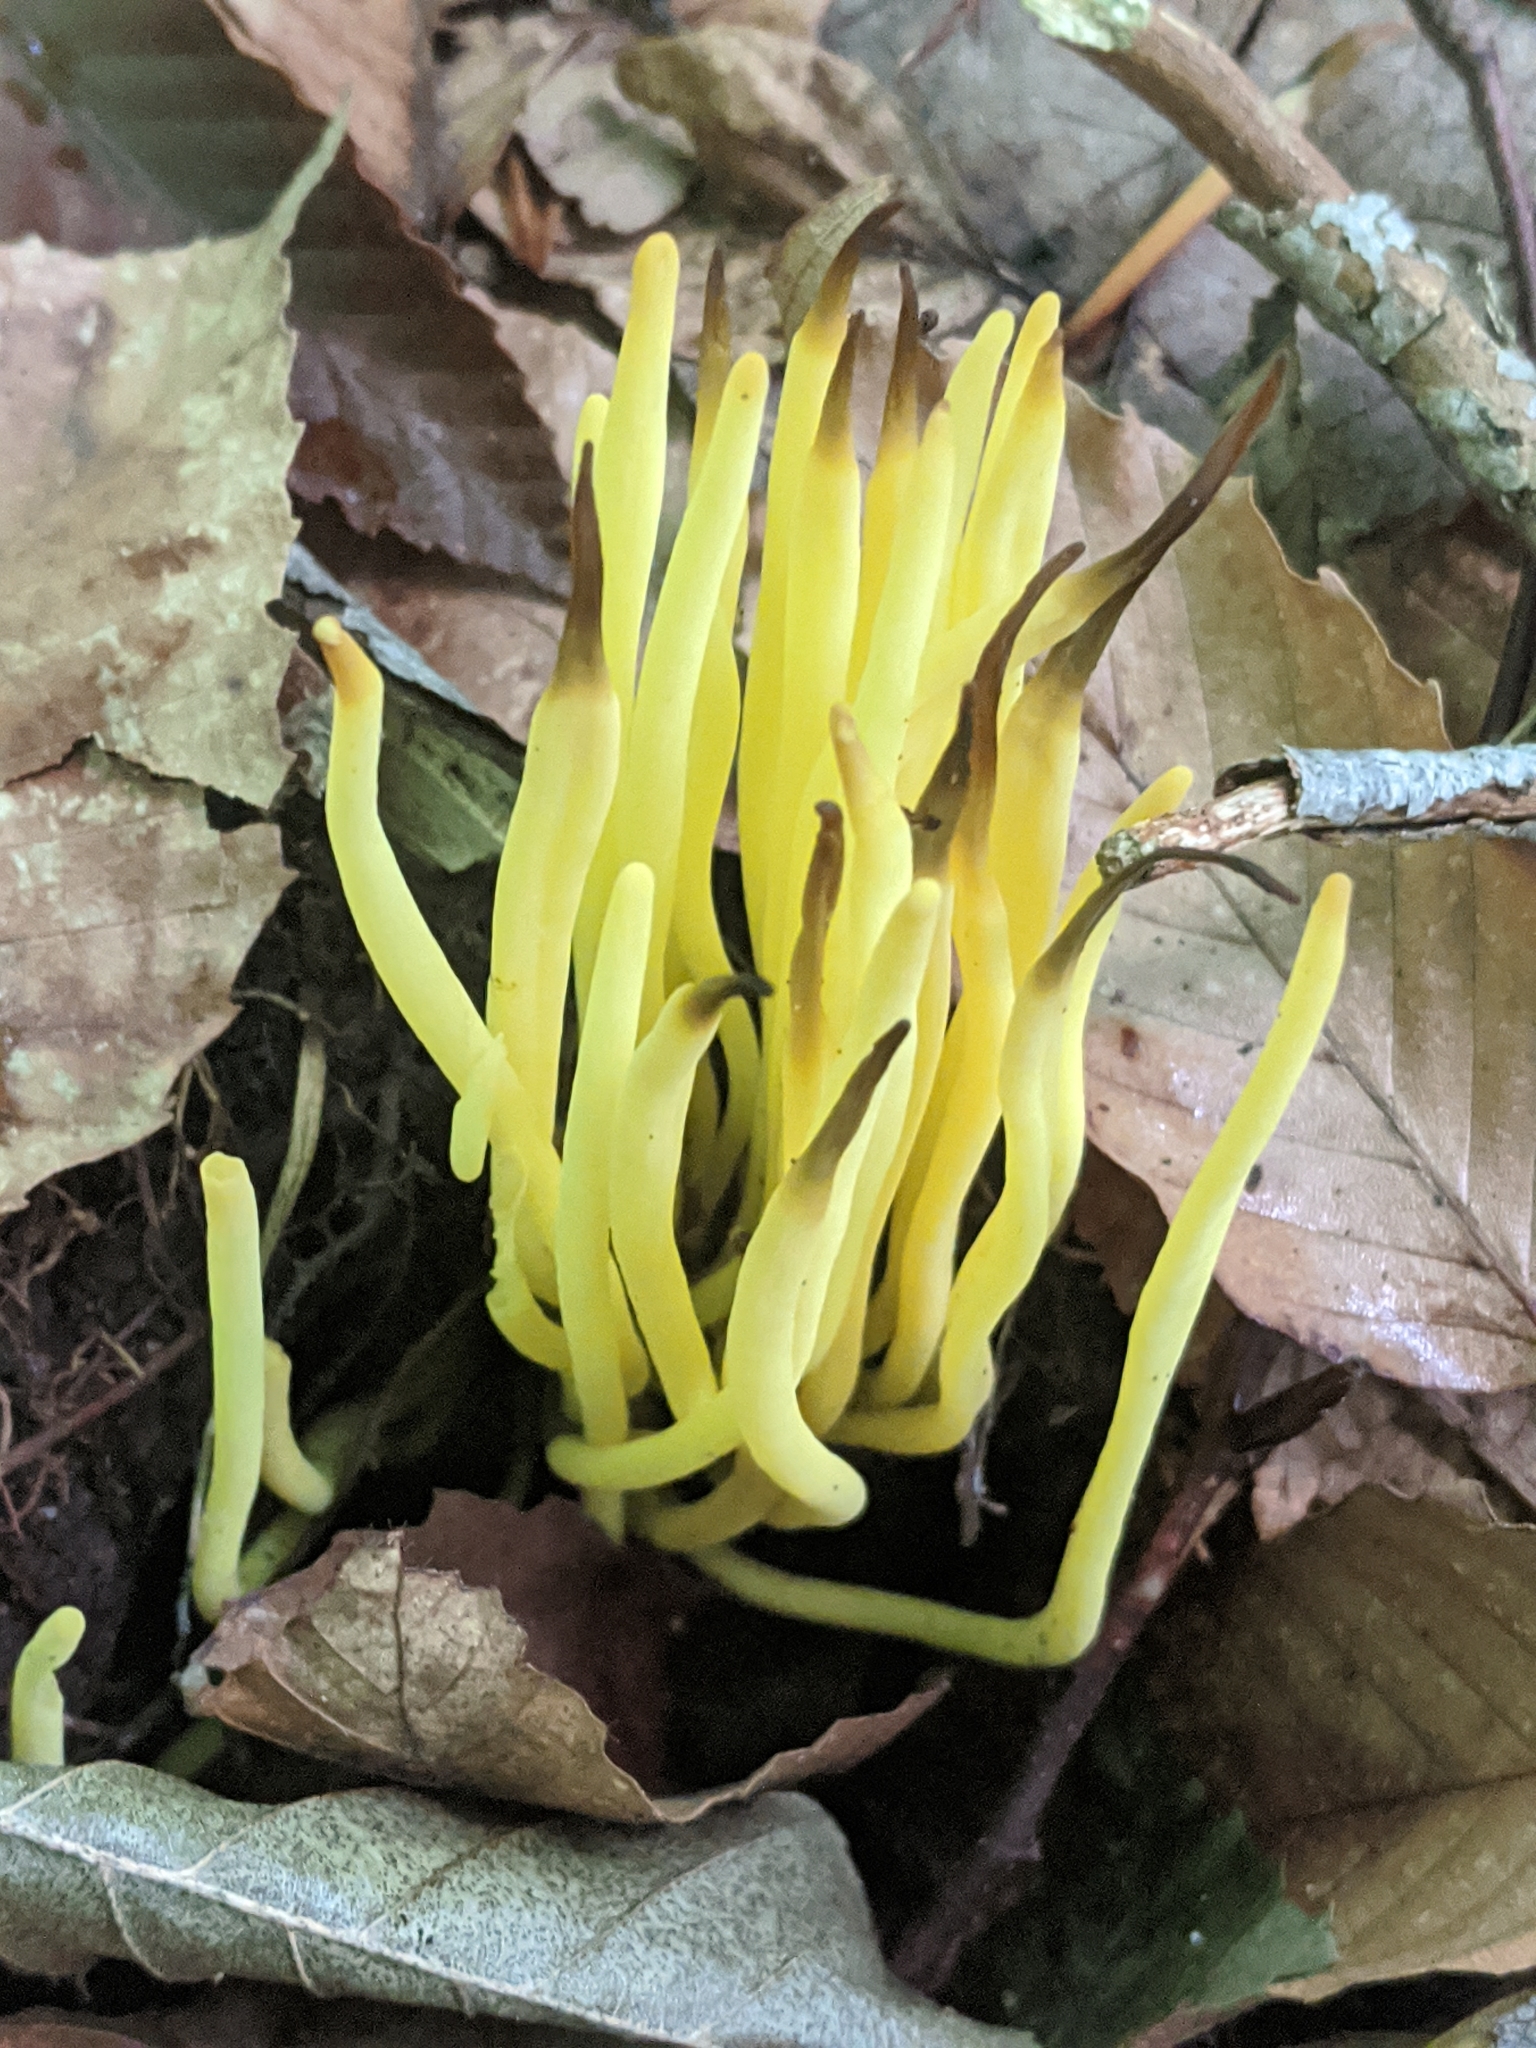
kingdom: Fungi
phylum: Basidiomycota
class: Agaricomycetes
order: Agaricales
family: Clavariaceae
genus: Clavulinopsis
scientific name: Clavulinopsis fusiformis
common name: Golden spindles
